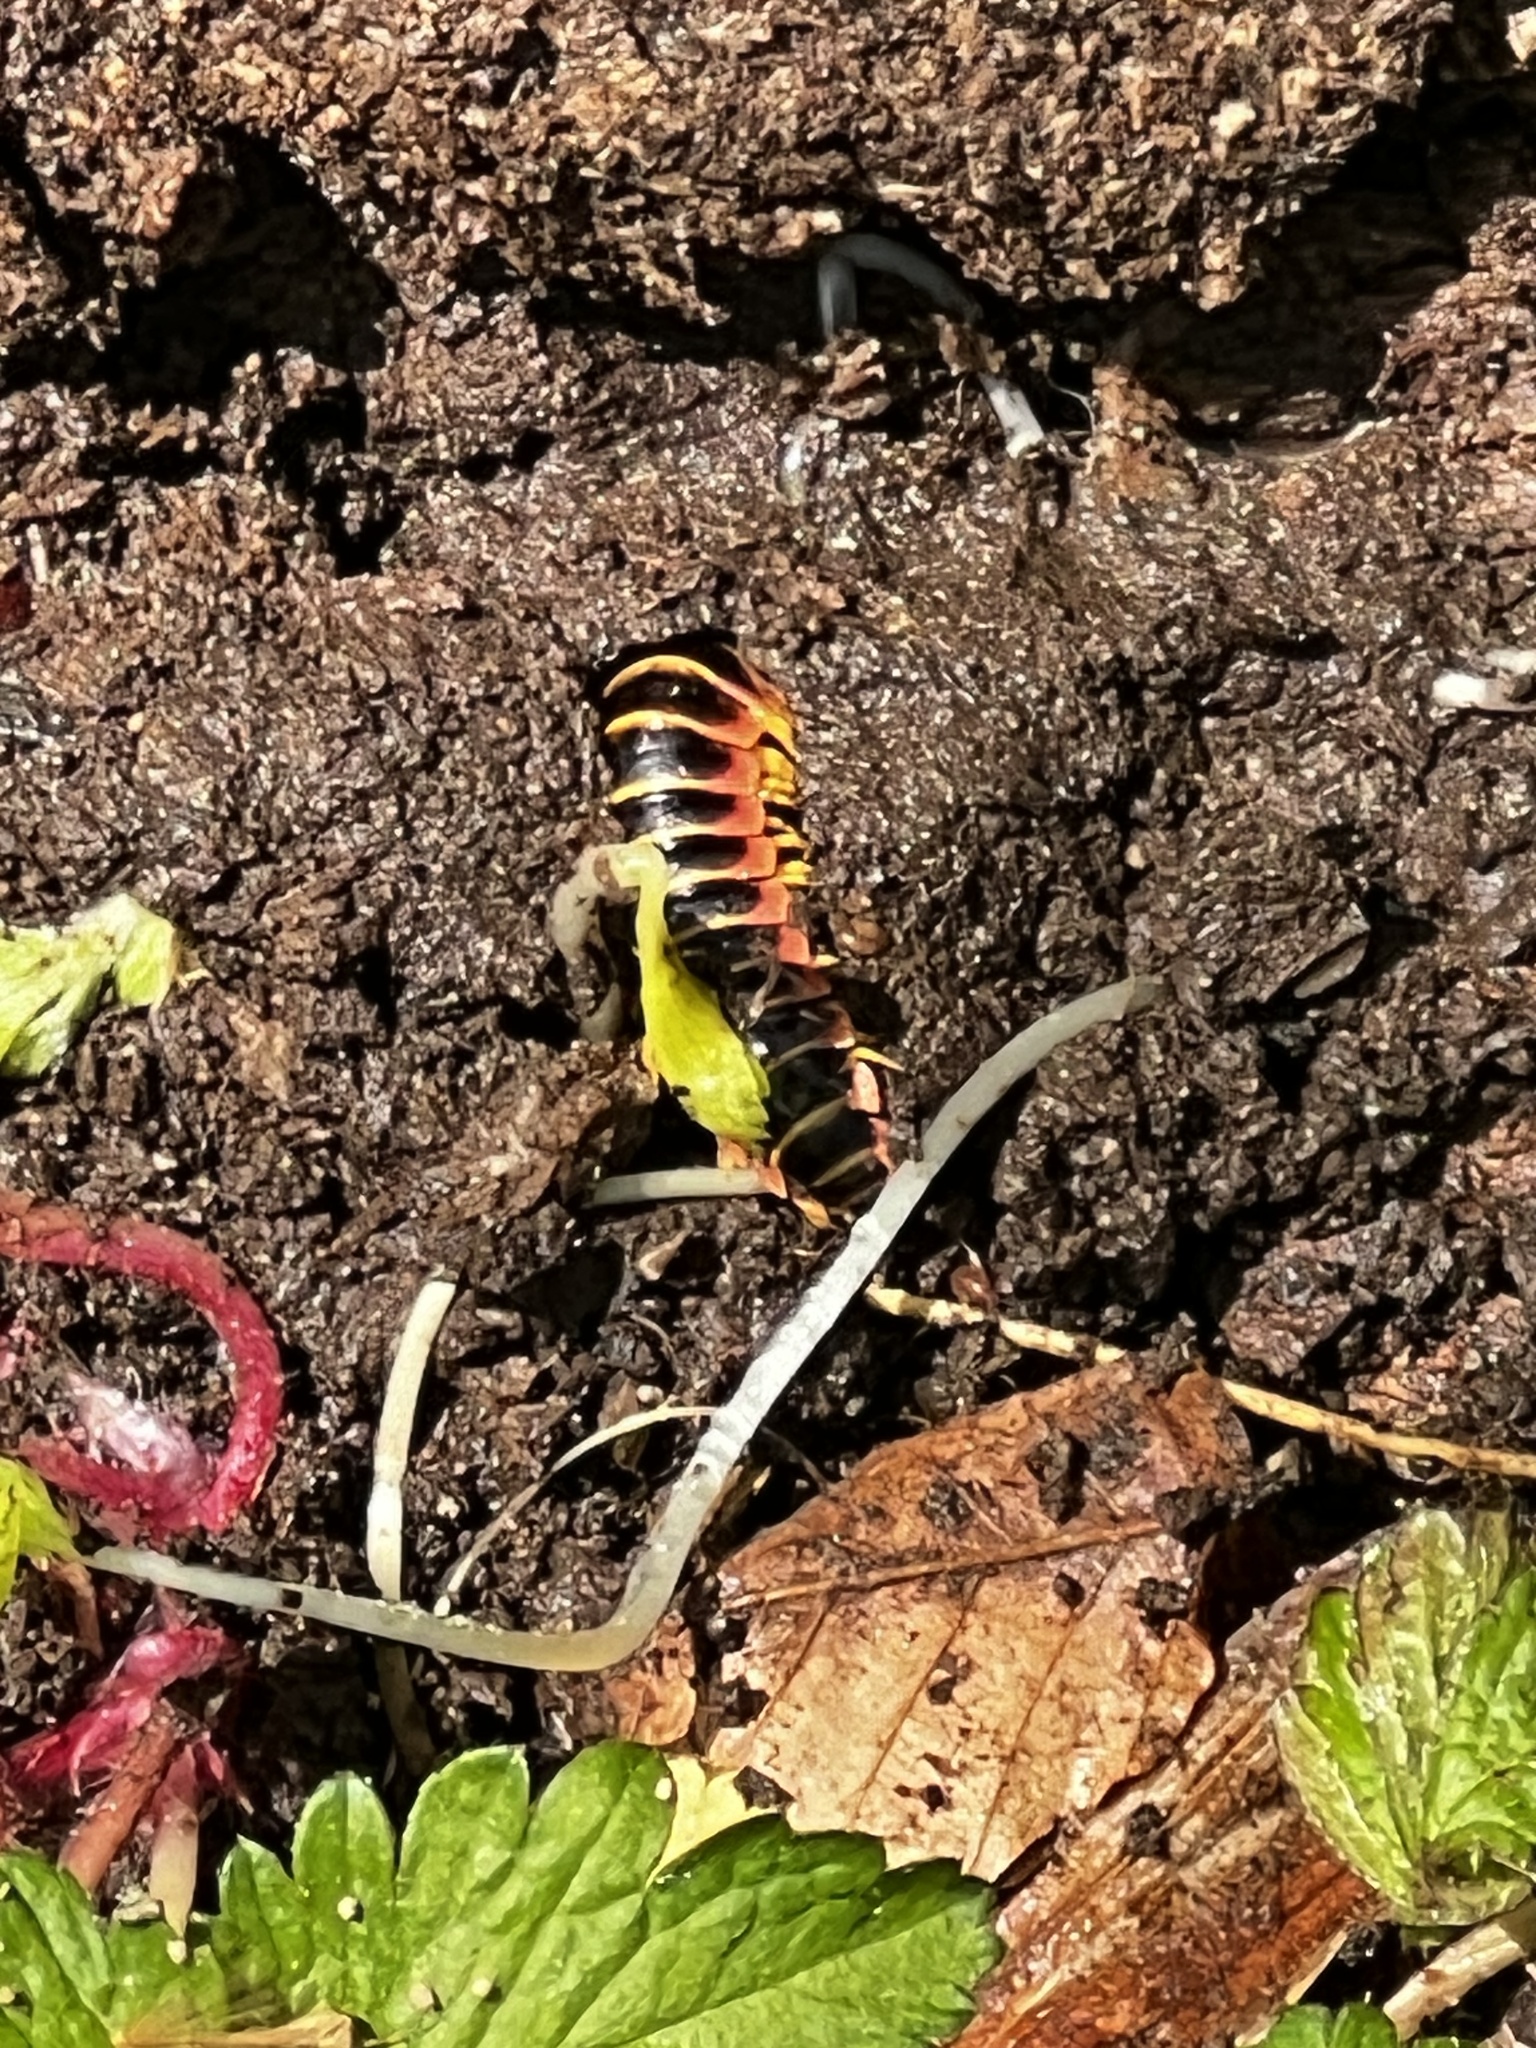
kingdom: Animalia
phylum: Arthropoda
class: Diplopoda
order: Polydesmida
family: Xystodesmidae
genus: Apheloria
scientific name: Apheloria virginiensis
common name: Black-and-gold flat millipede
